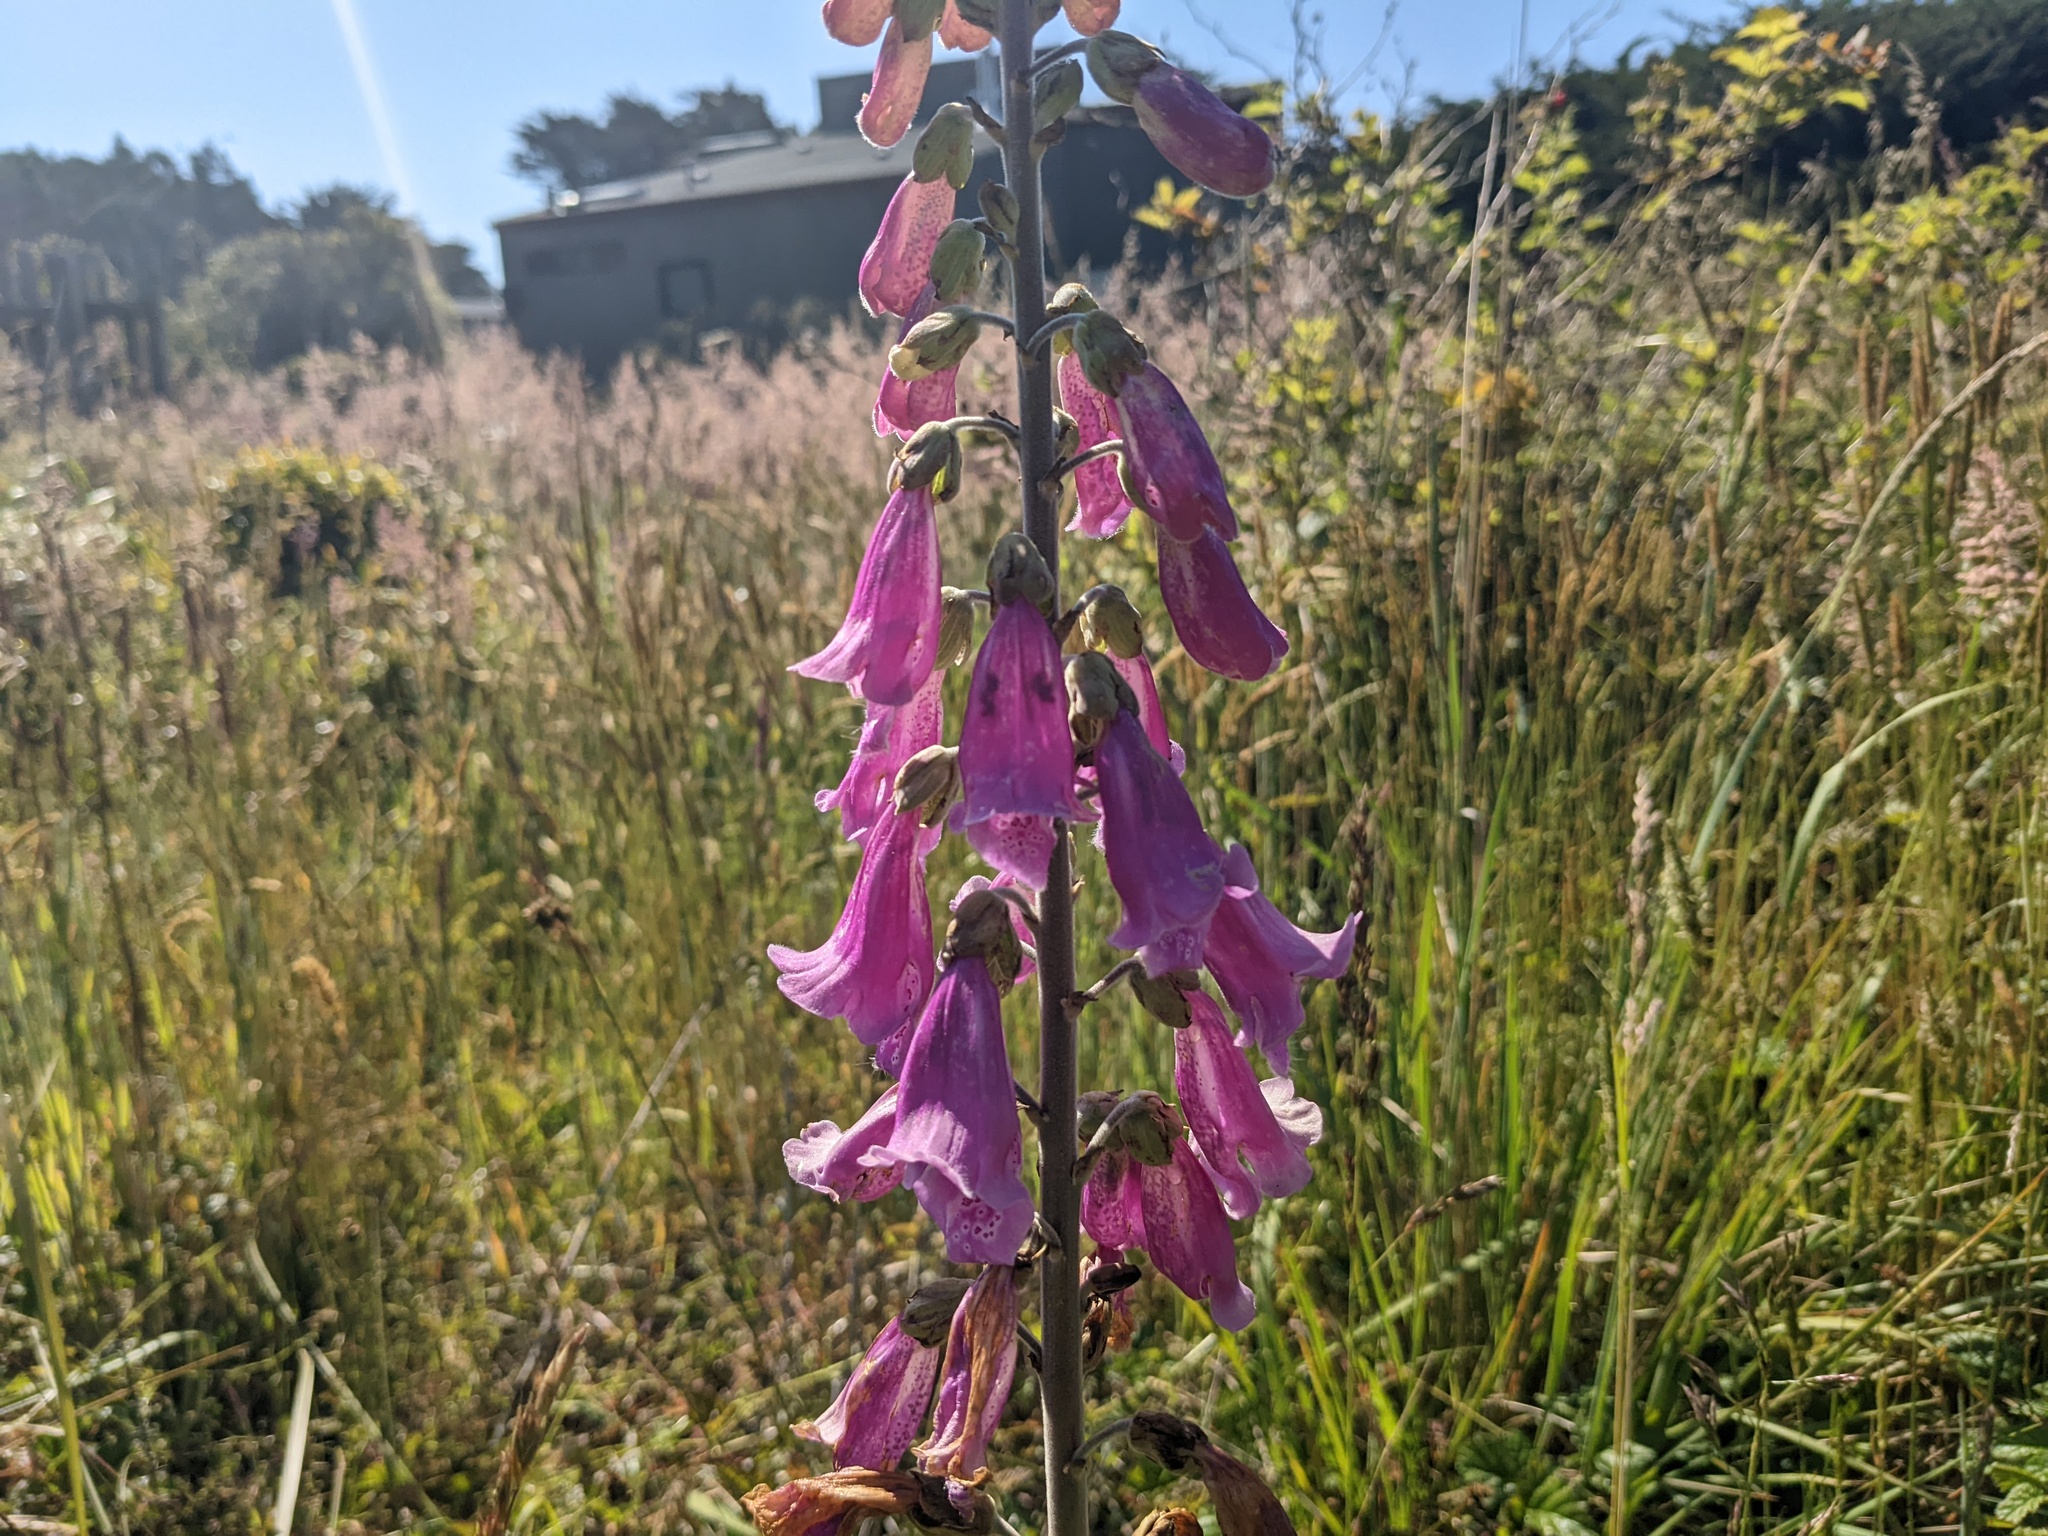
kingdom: Plantae
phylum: Tracheophyta
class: Magnoliopsida
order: Lamiales
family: Plantaginaceae
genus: Digitalis
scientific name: Digitalis purpurea
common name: Foxglove
